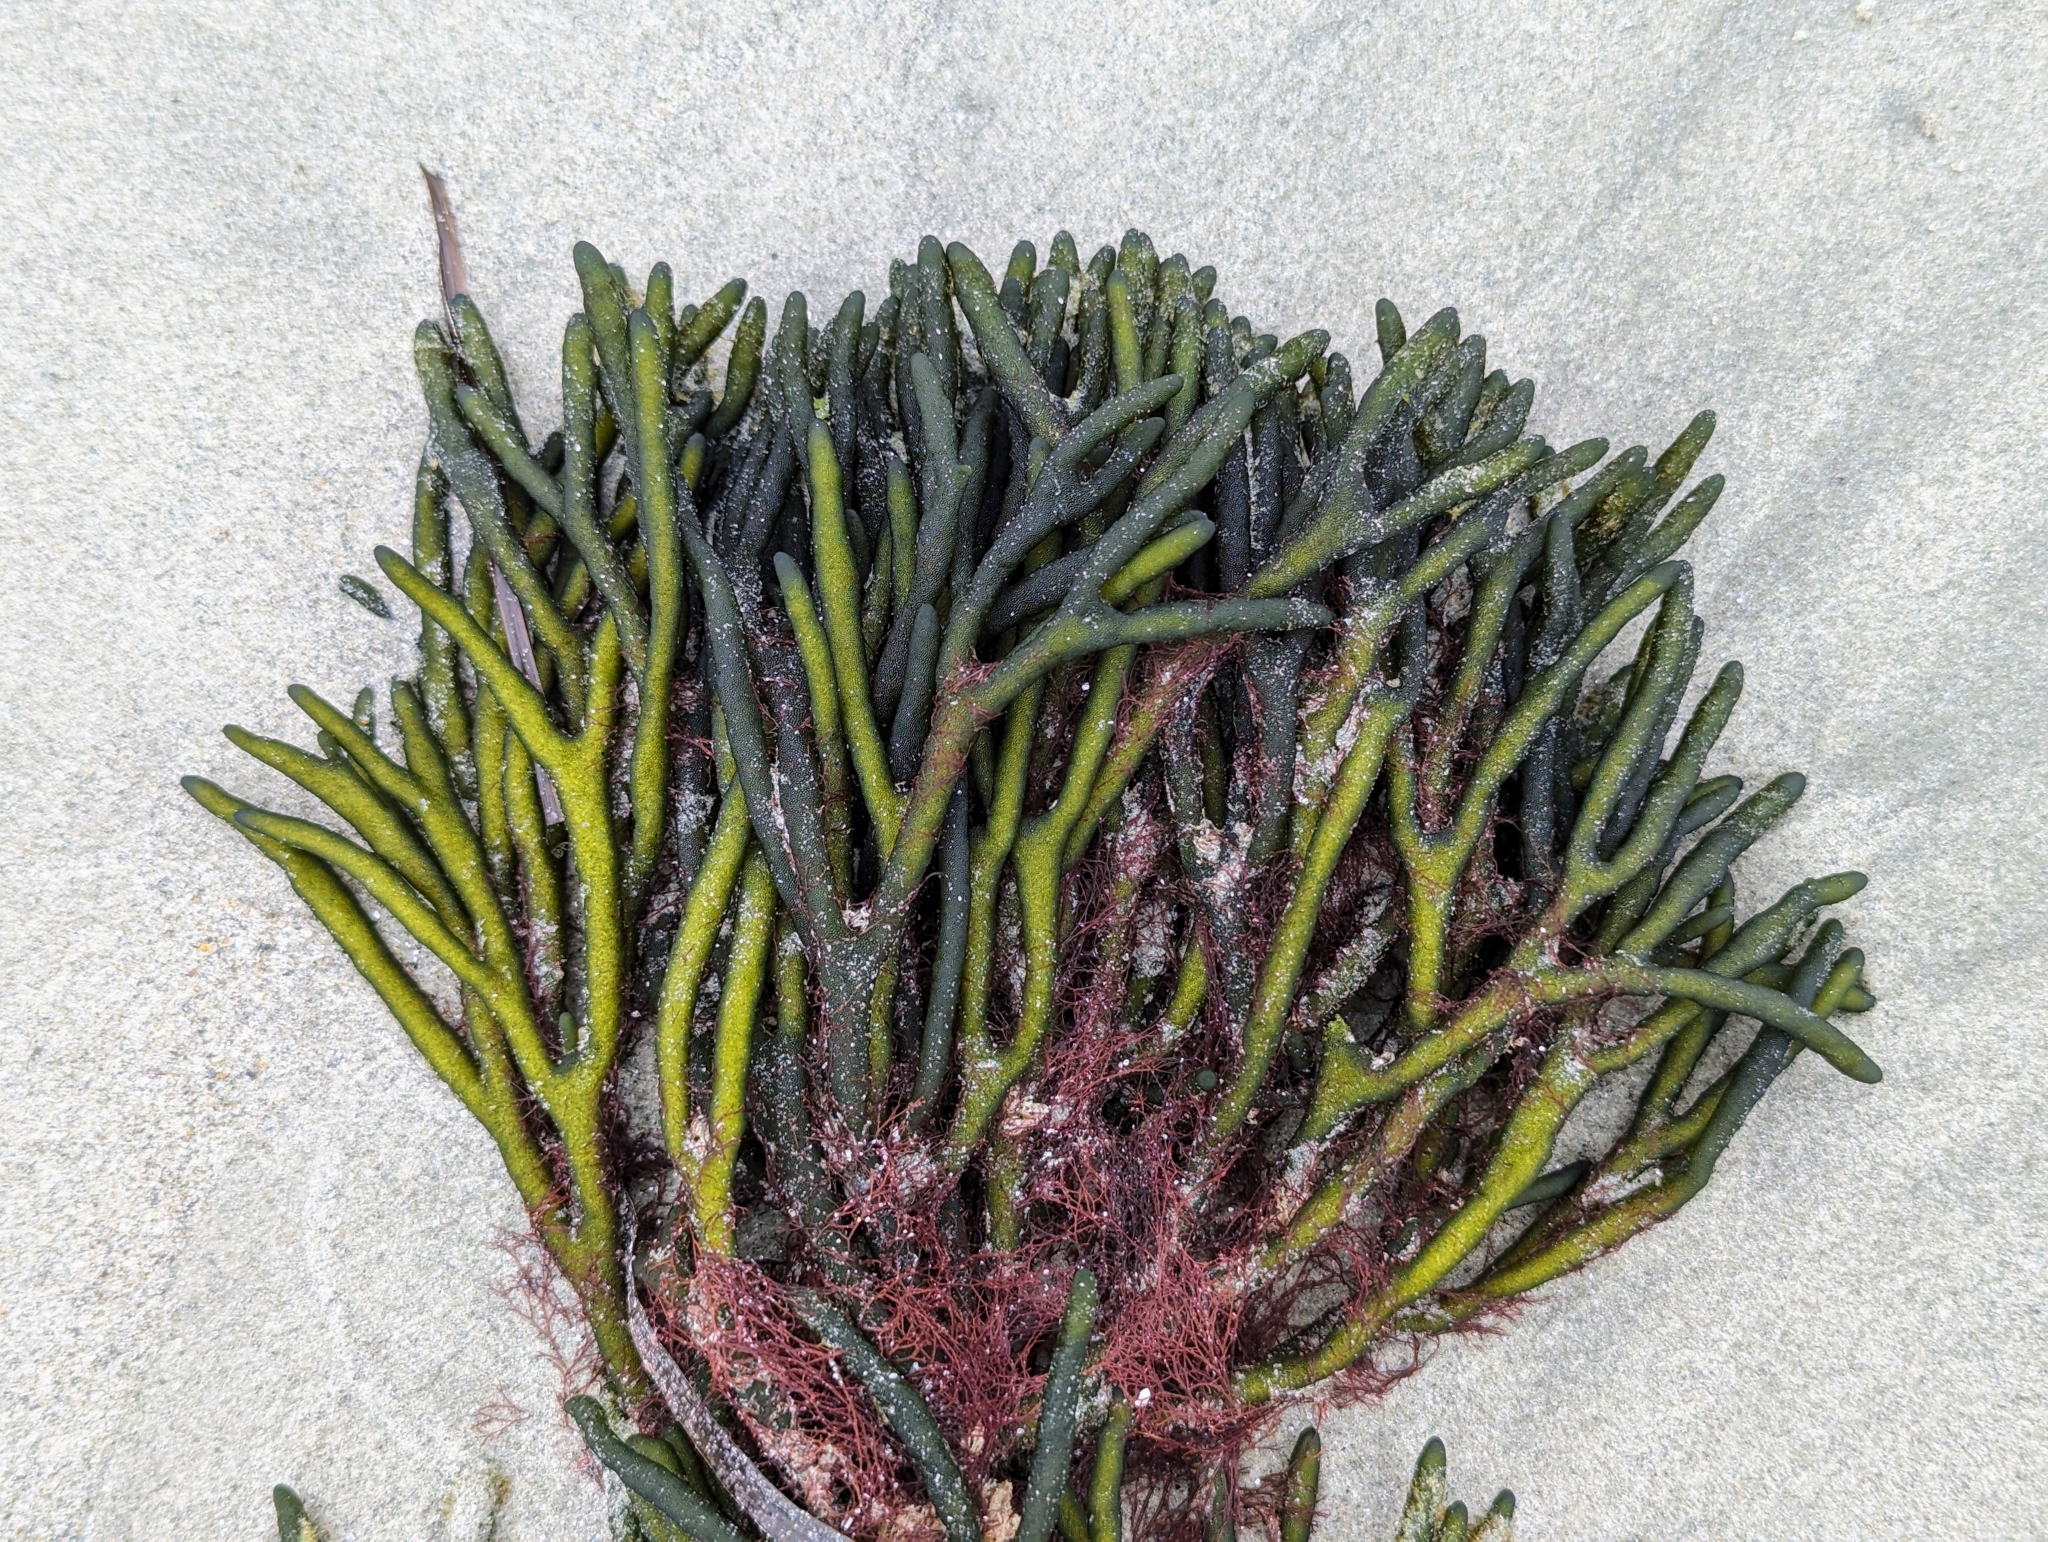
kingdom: Plantae
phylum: Chlorophyta
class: Ulvophyceae
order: Bryopsidales
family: Codiaceae
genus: Codium
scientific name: Codium fragile
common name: Dead man's fingers
